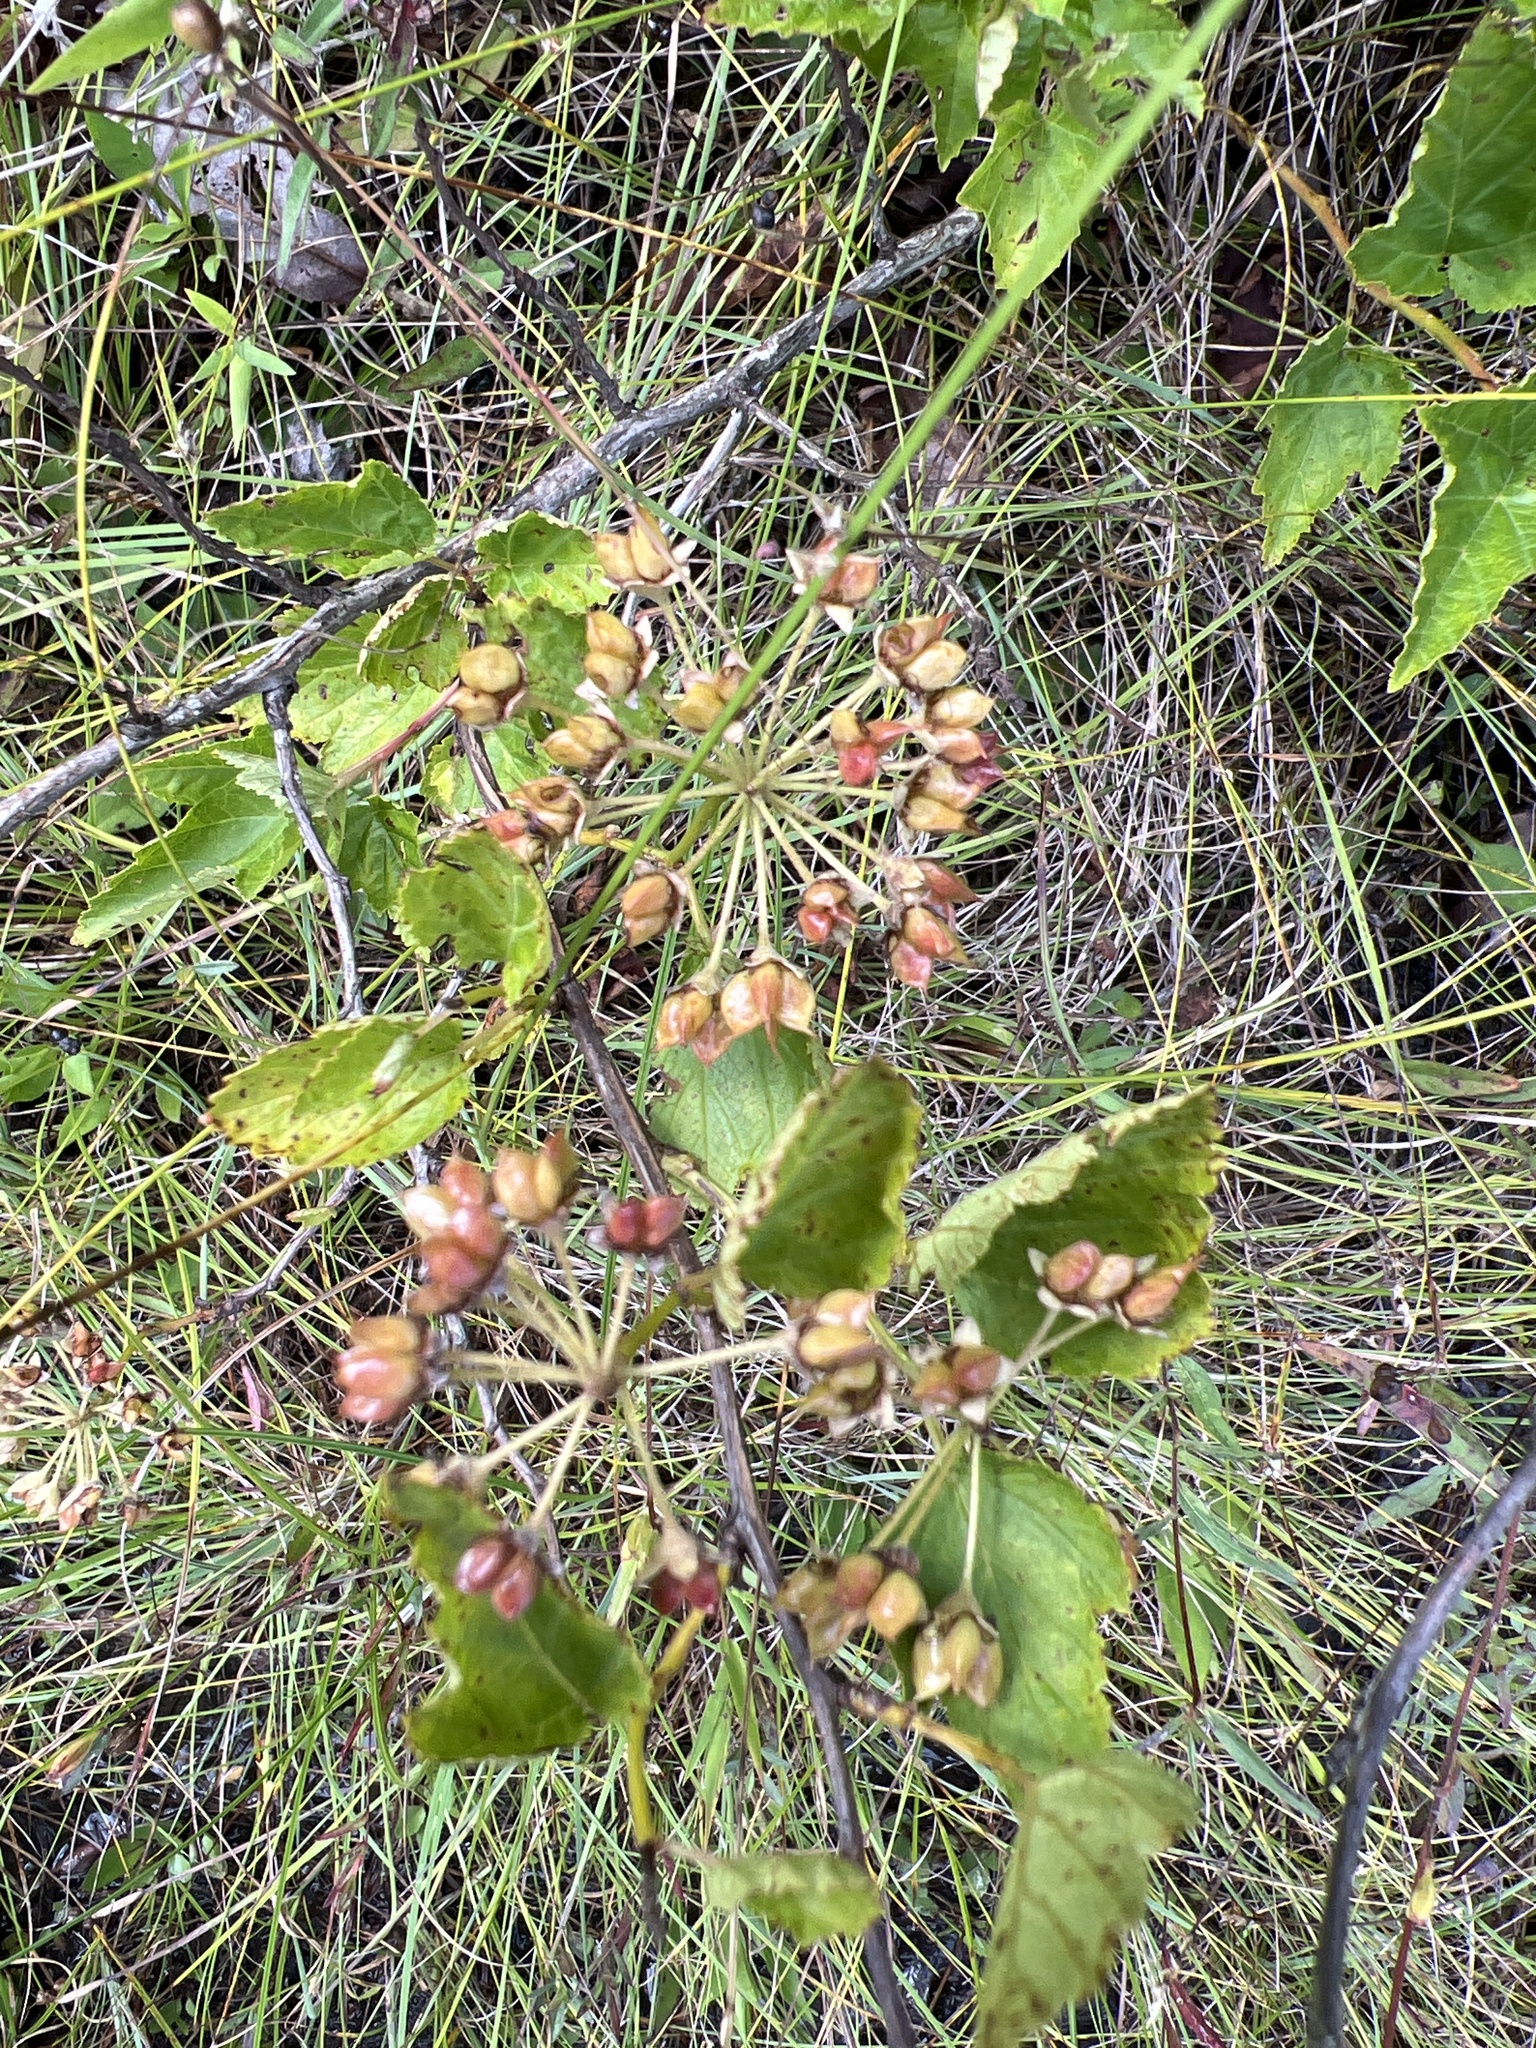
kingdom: Plantae
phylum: Tracheophyta
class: Magnoliopsida
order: Rosales
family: Rosaceae
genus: Physocarpus
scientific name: Physocarpus opulifolius
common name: Ninebark
